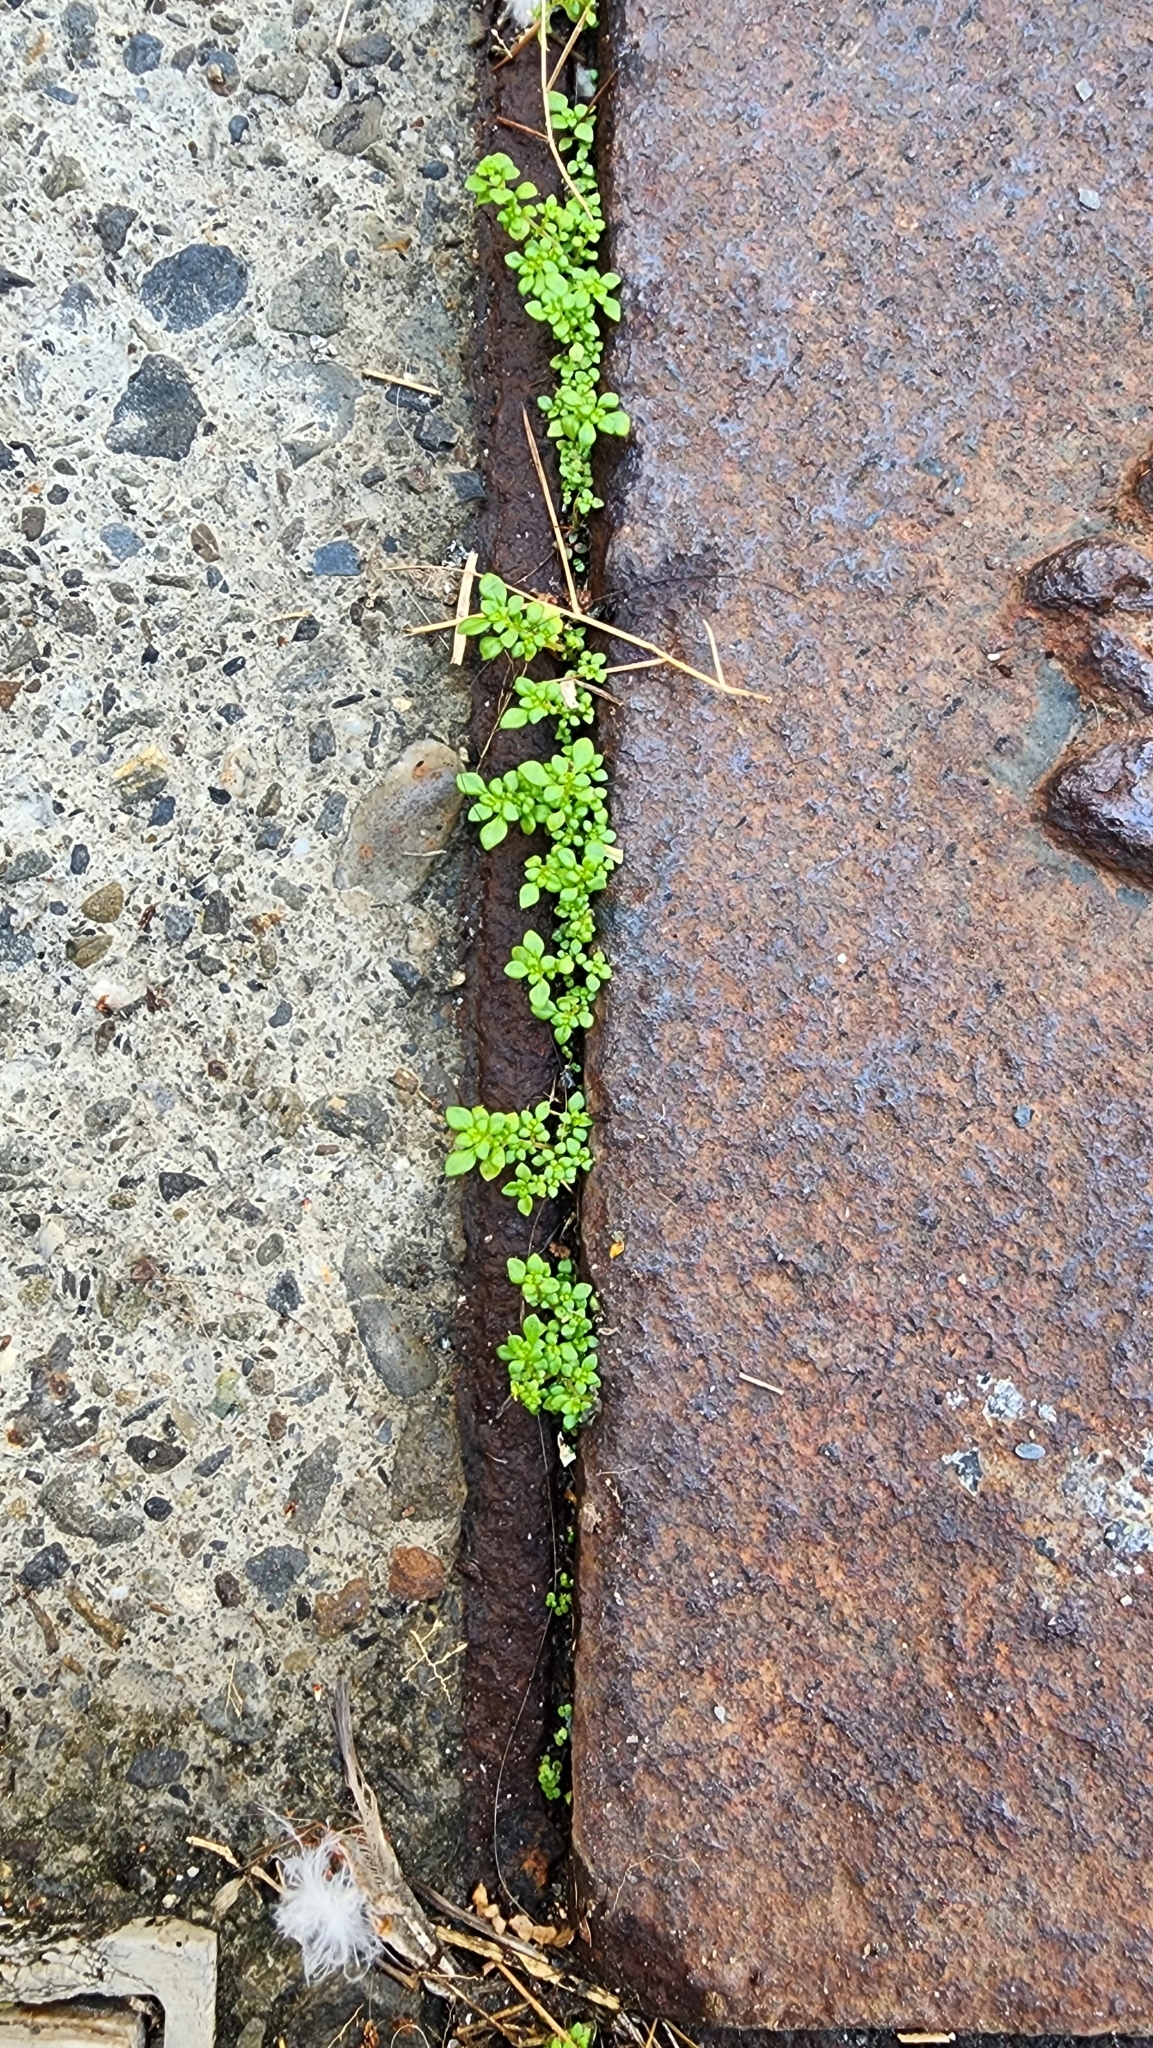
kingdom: Plantae
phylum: Tracheophyta
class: Magnoliopsida
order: Rosales
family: Urticaceae
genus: Pilea
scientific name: Pilea microphylla
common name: Artillery-plant
